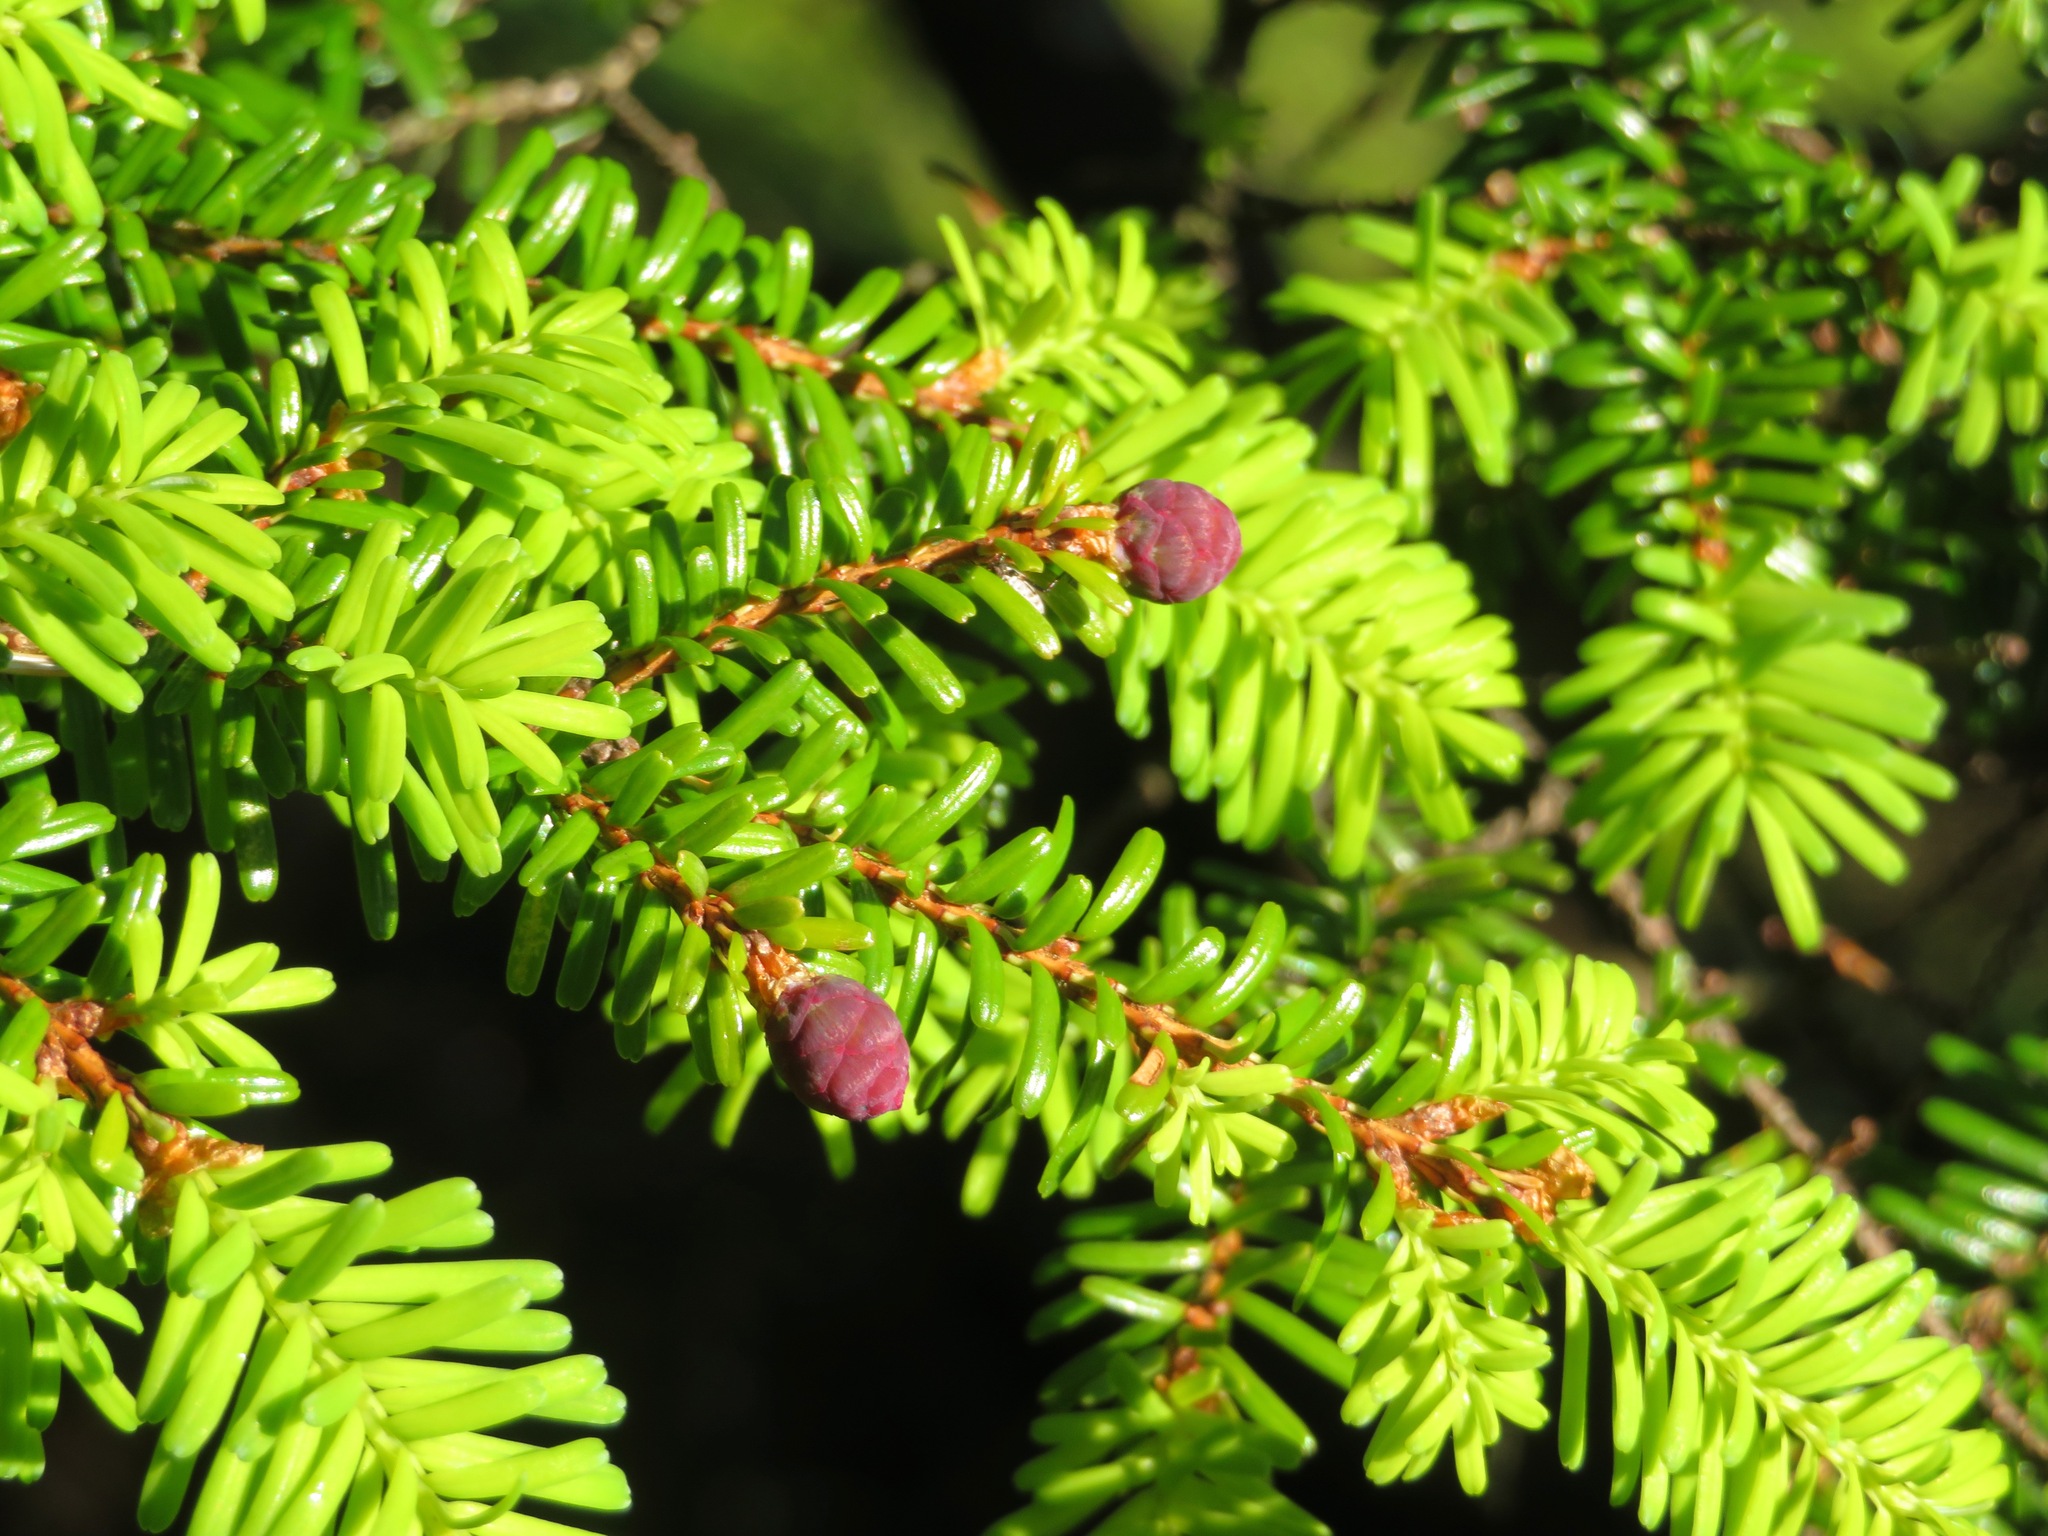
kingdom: Plantae
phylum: Tracheophyta
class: Pinopsida
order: Pinales
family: Pinaceae
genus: Tsuga
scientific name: Tsuga diversifolia
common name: Northern japanese hemlock
